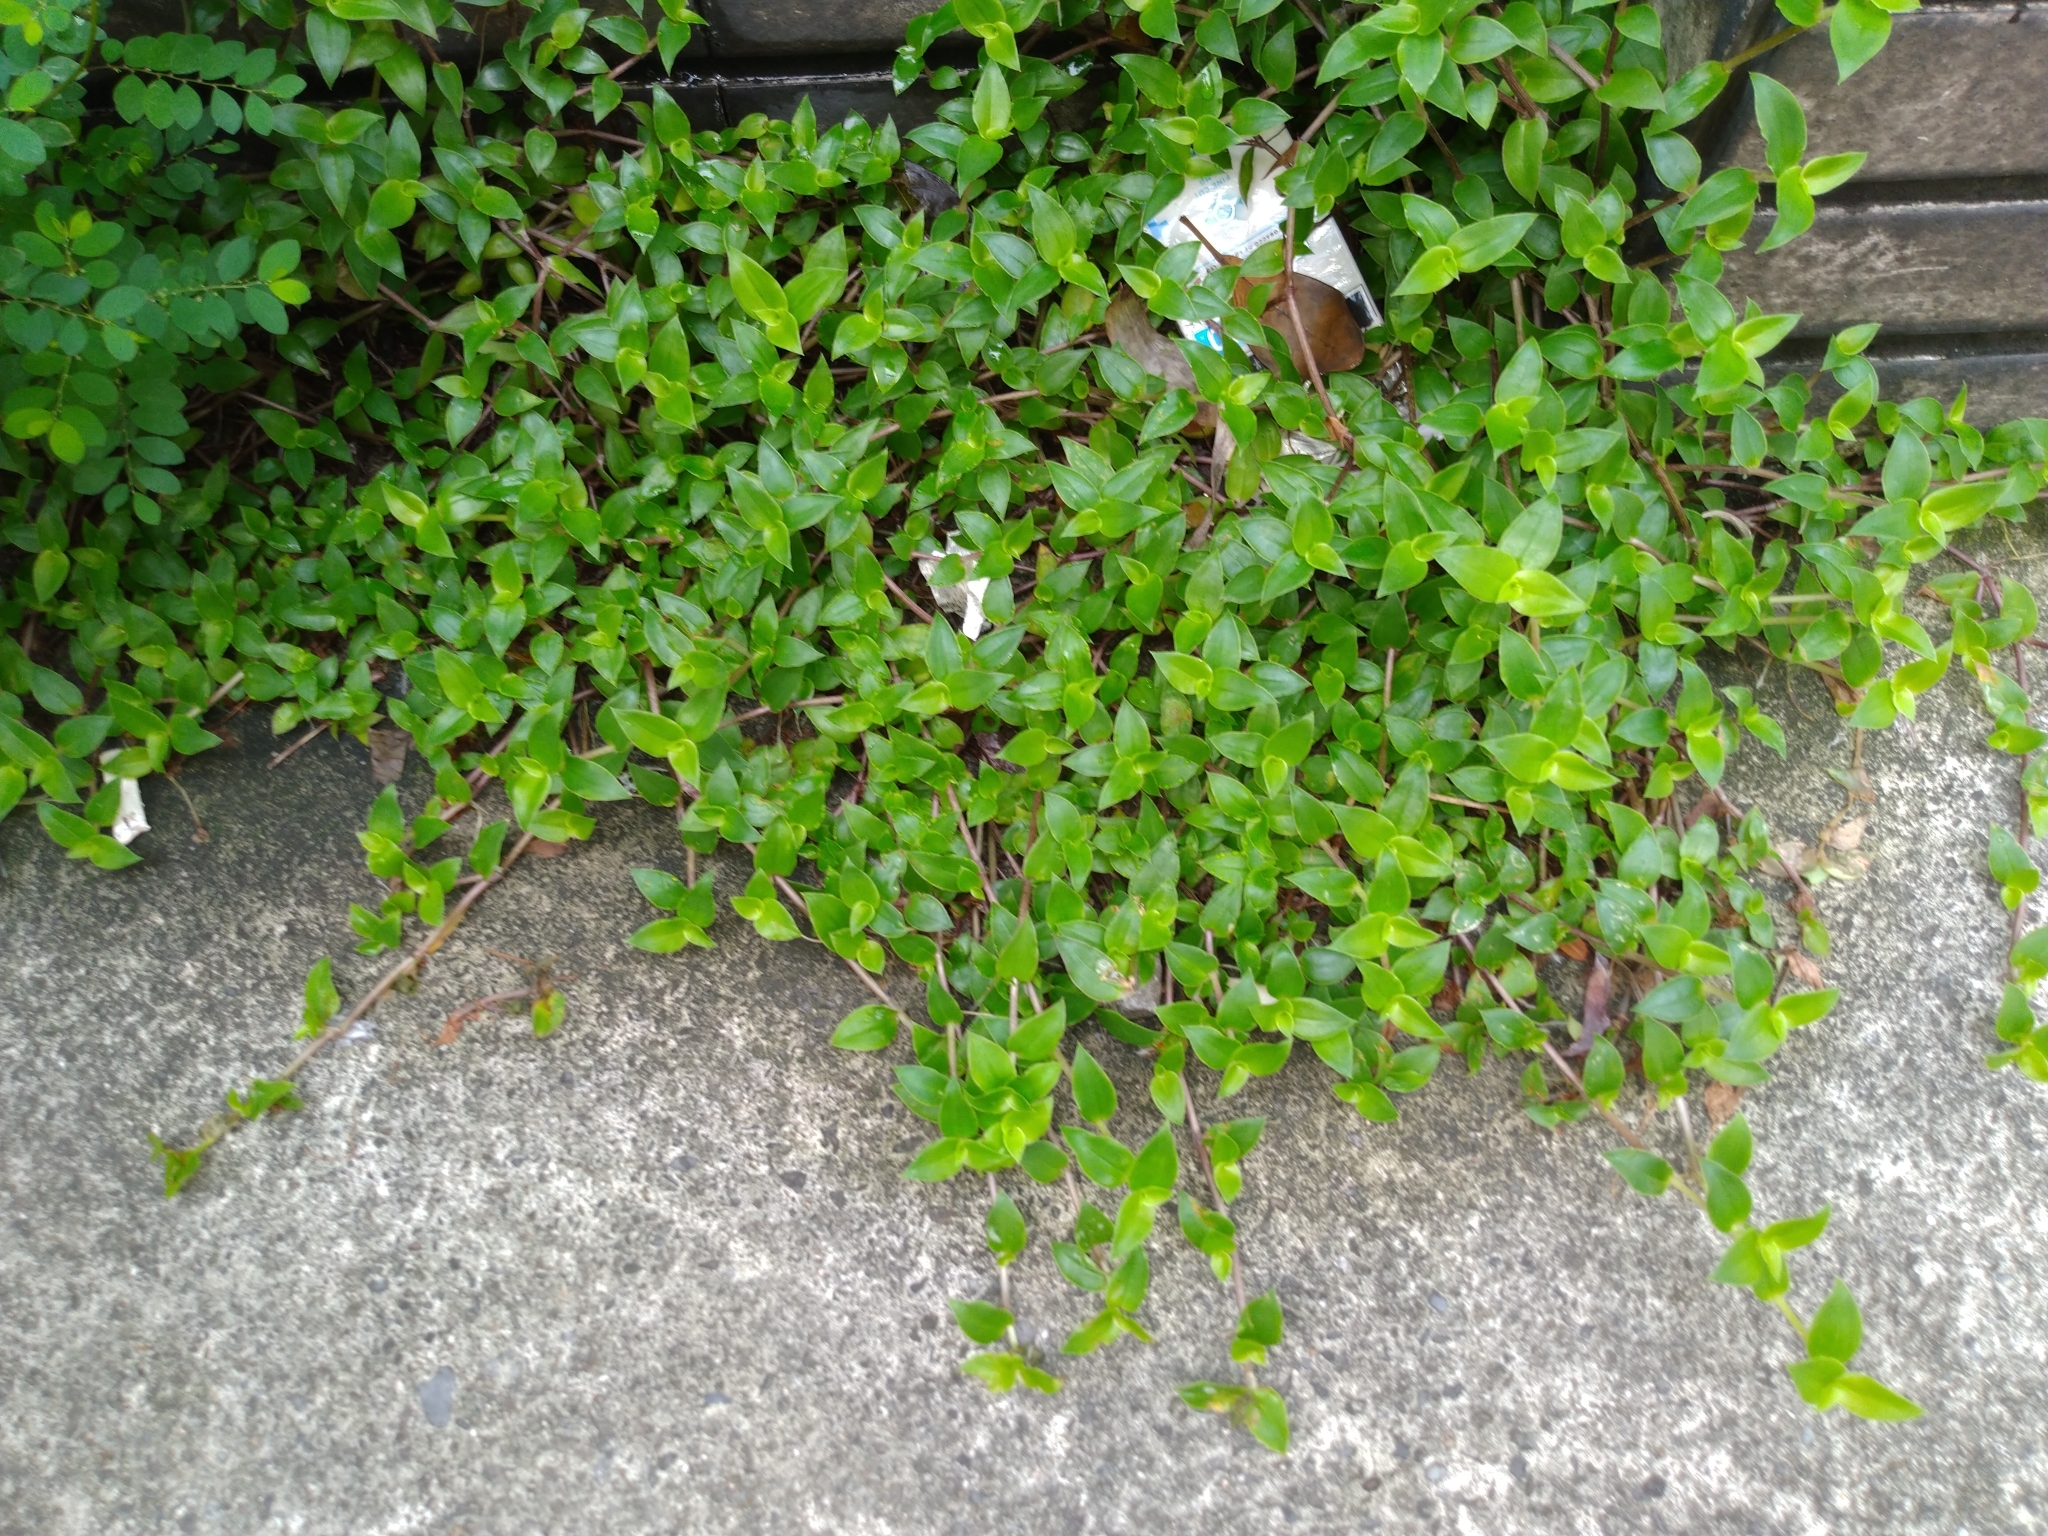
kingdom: Plantae
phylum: Tracheophyta
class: Liliopsida
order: Commelinales
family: Commelinaceae
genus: Callisia
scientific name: Callisia repens
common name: Creeping inchplant
